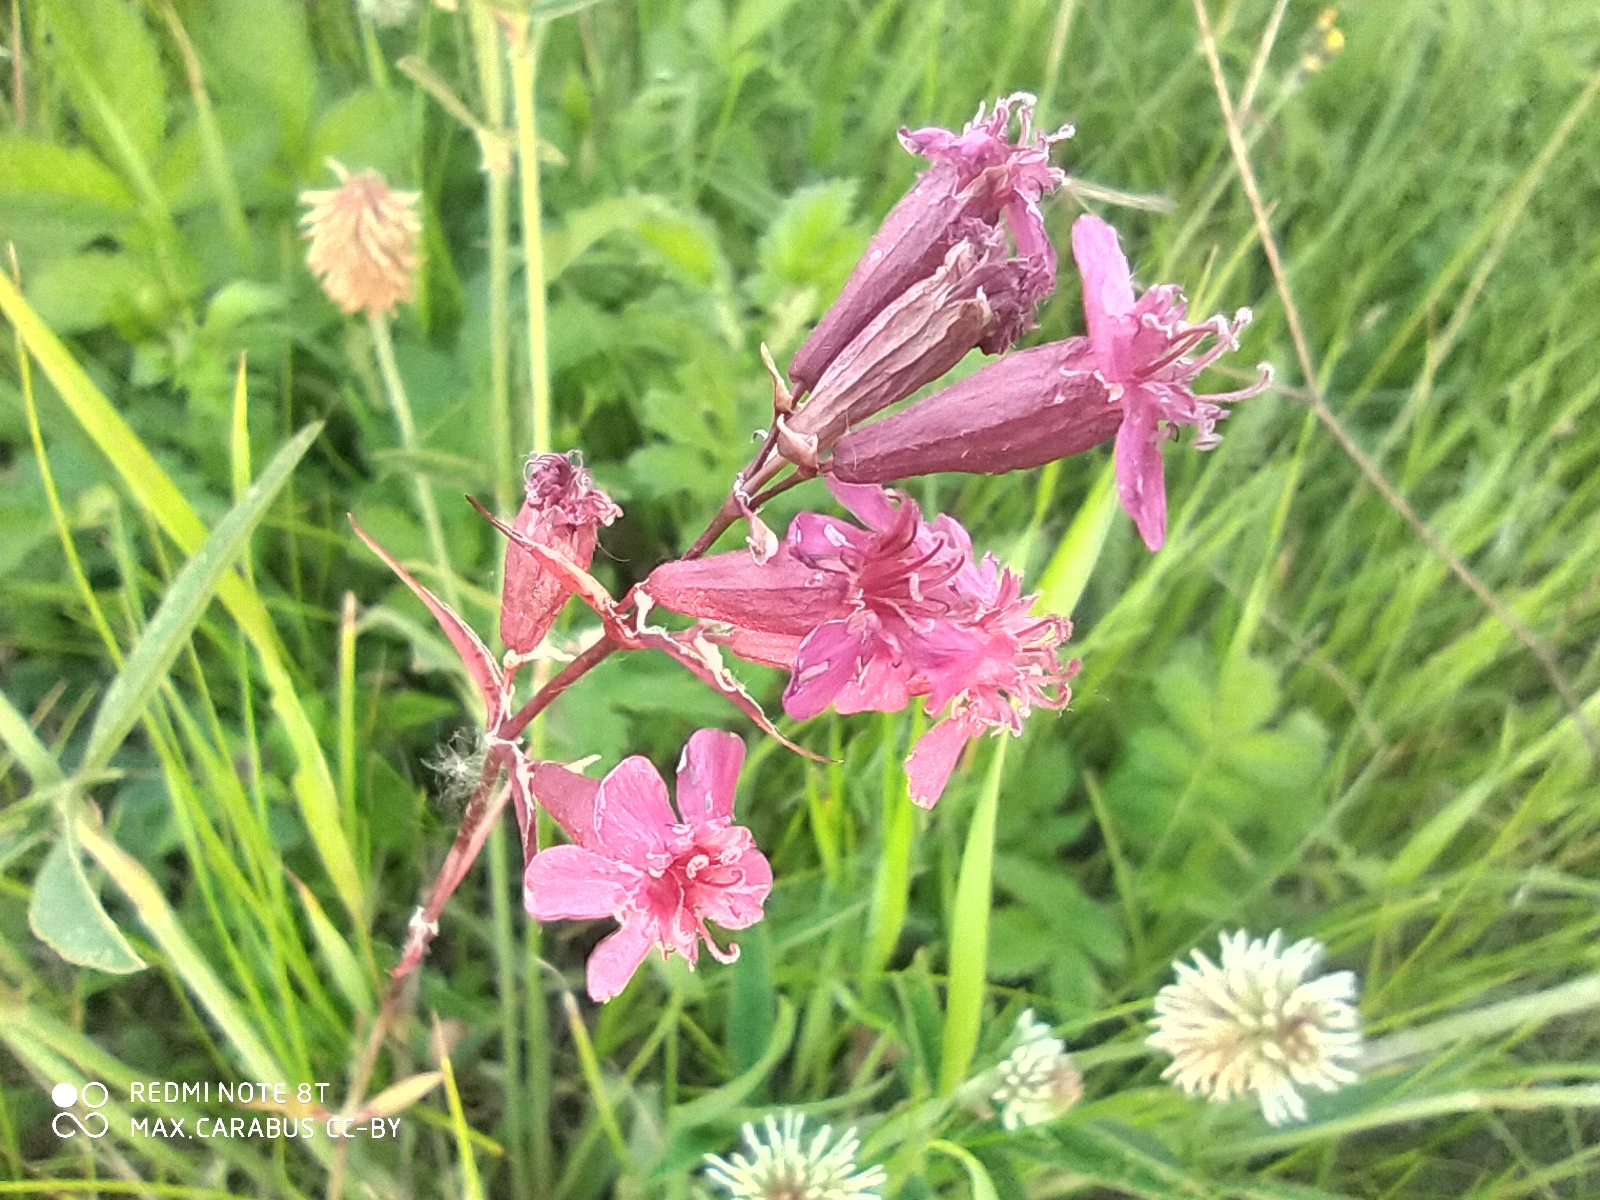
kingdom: Plantae
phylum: Tracheophyta
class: Magnoliopsida
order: Caryophyllales
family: Caryophyllaceae
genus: Viscaria
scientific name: Viscaria vulgaris
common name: Clammy campion
